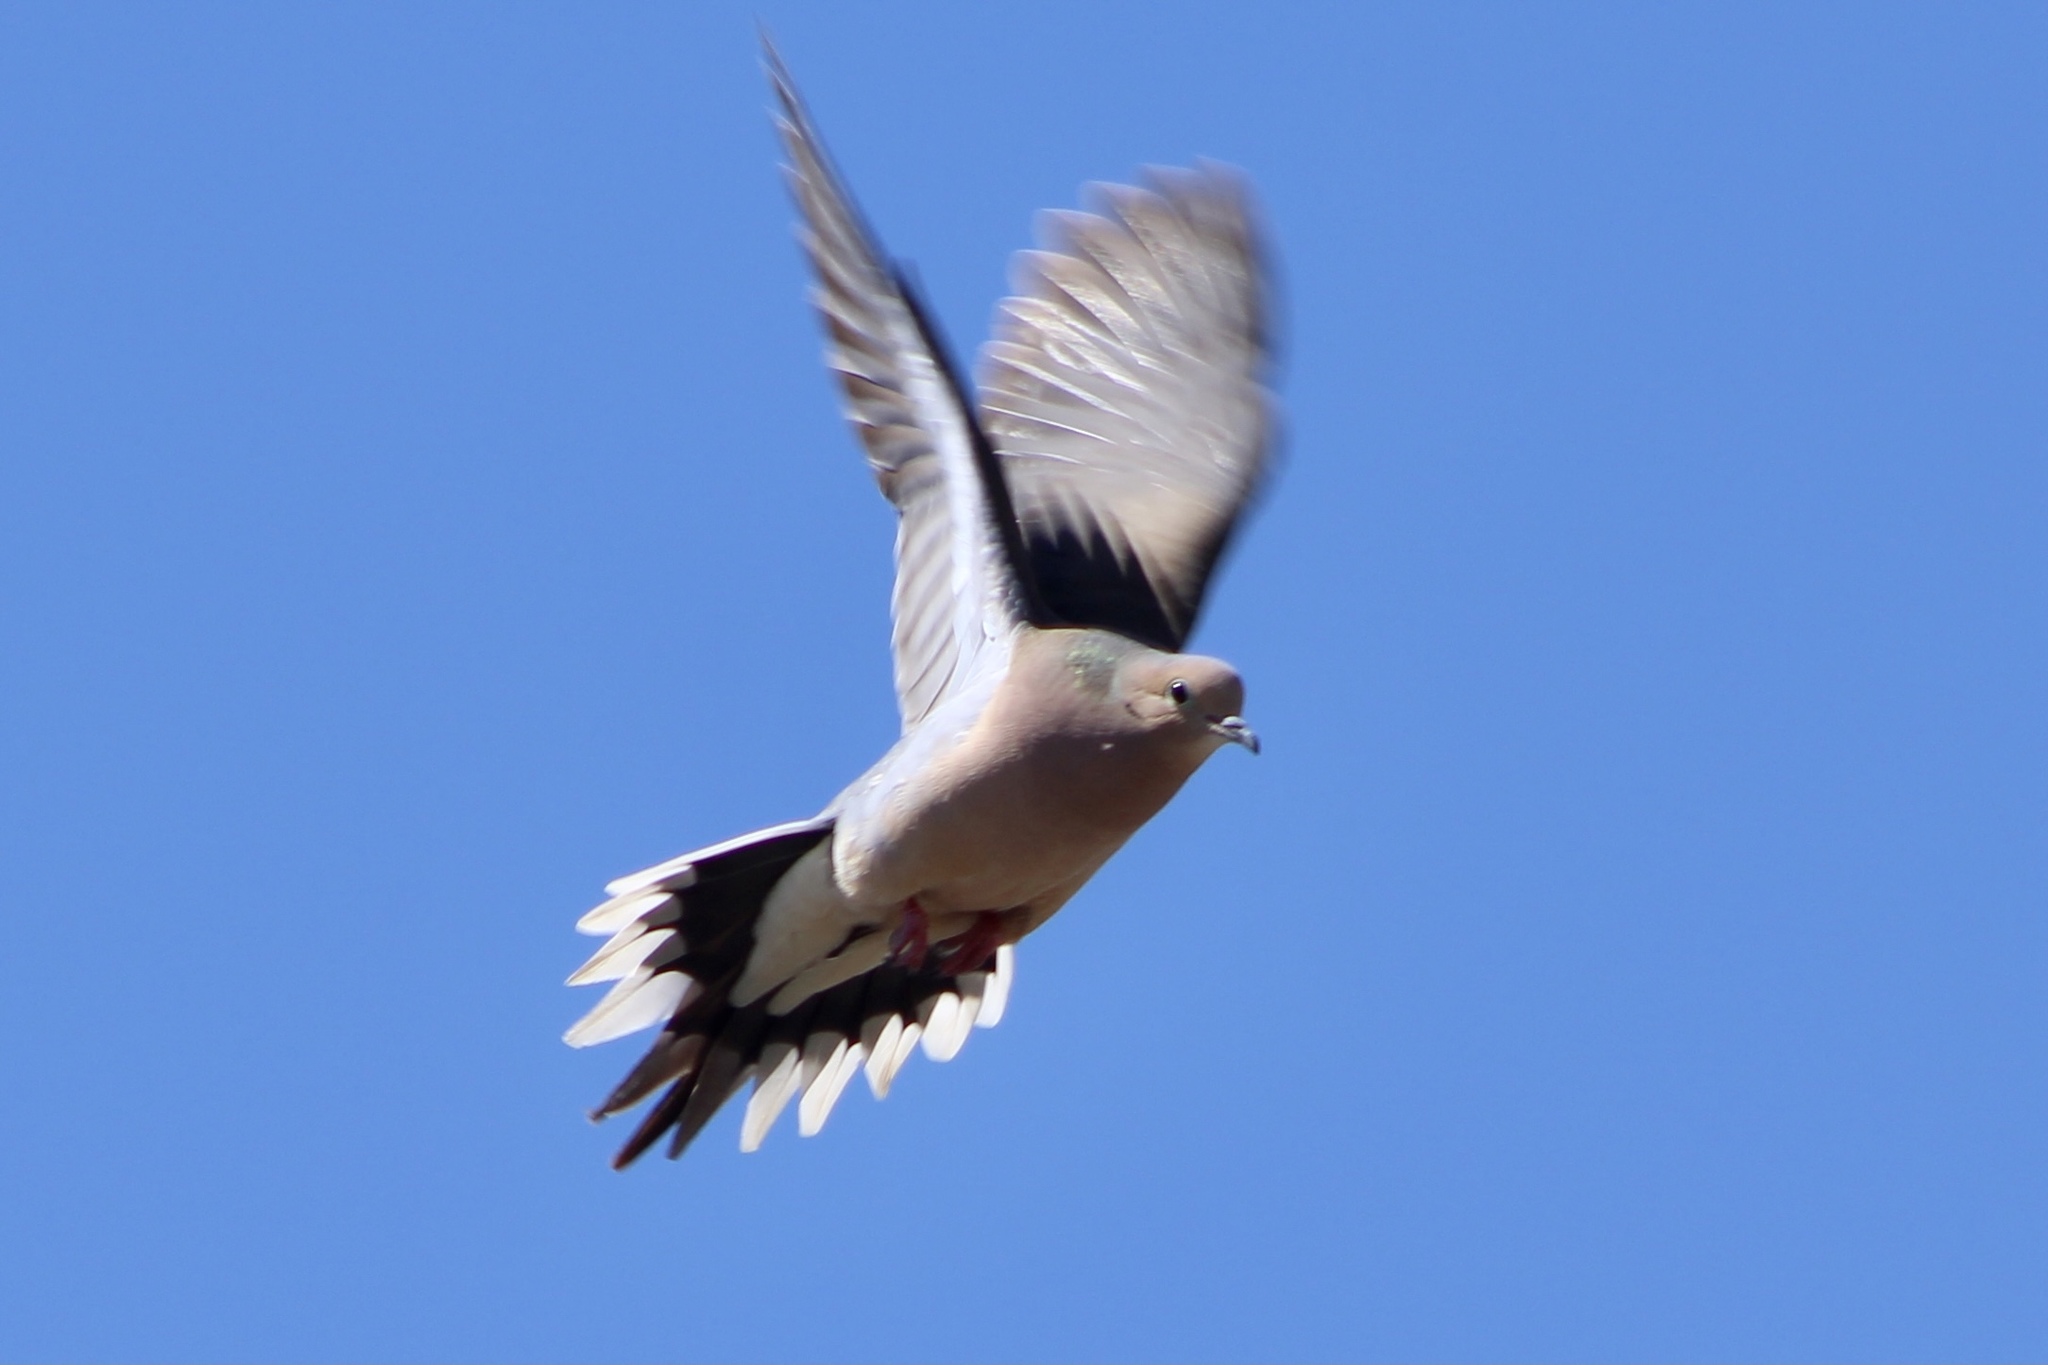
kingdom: Animalia
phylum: Chordata
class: Aves
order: Columbiformes
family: Columbidae
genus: Zenaida
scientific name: Zenaida macroura
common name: Mourning dove
